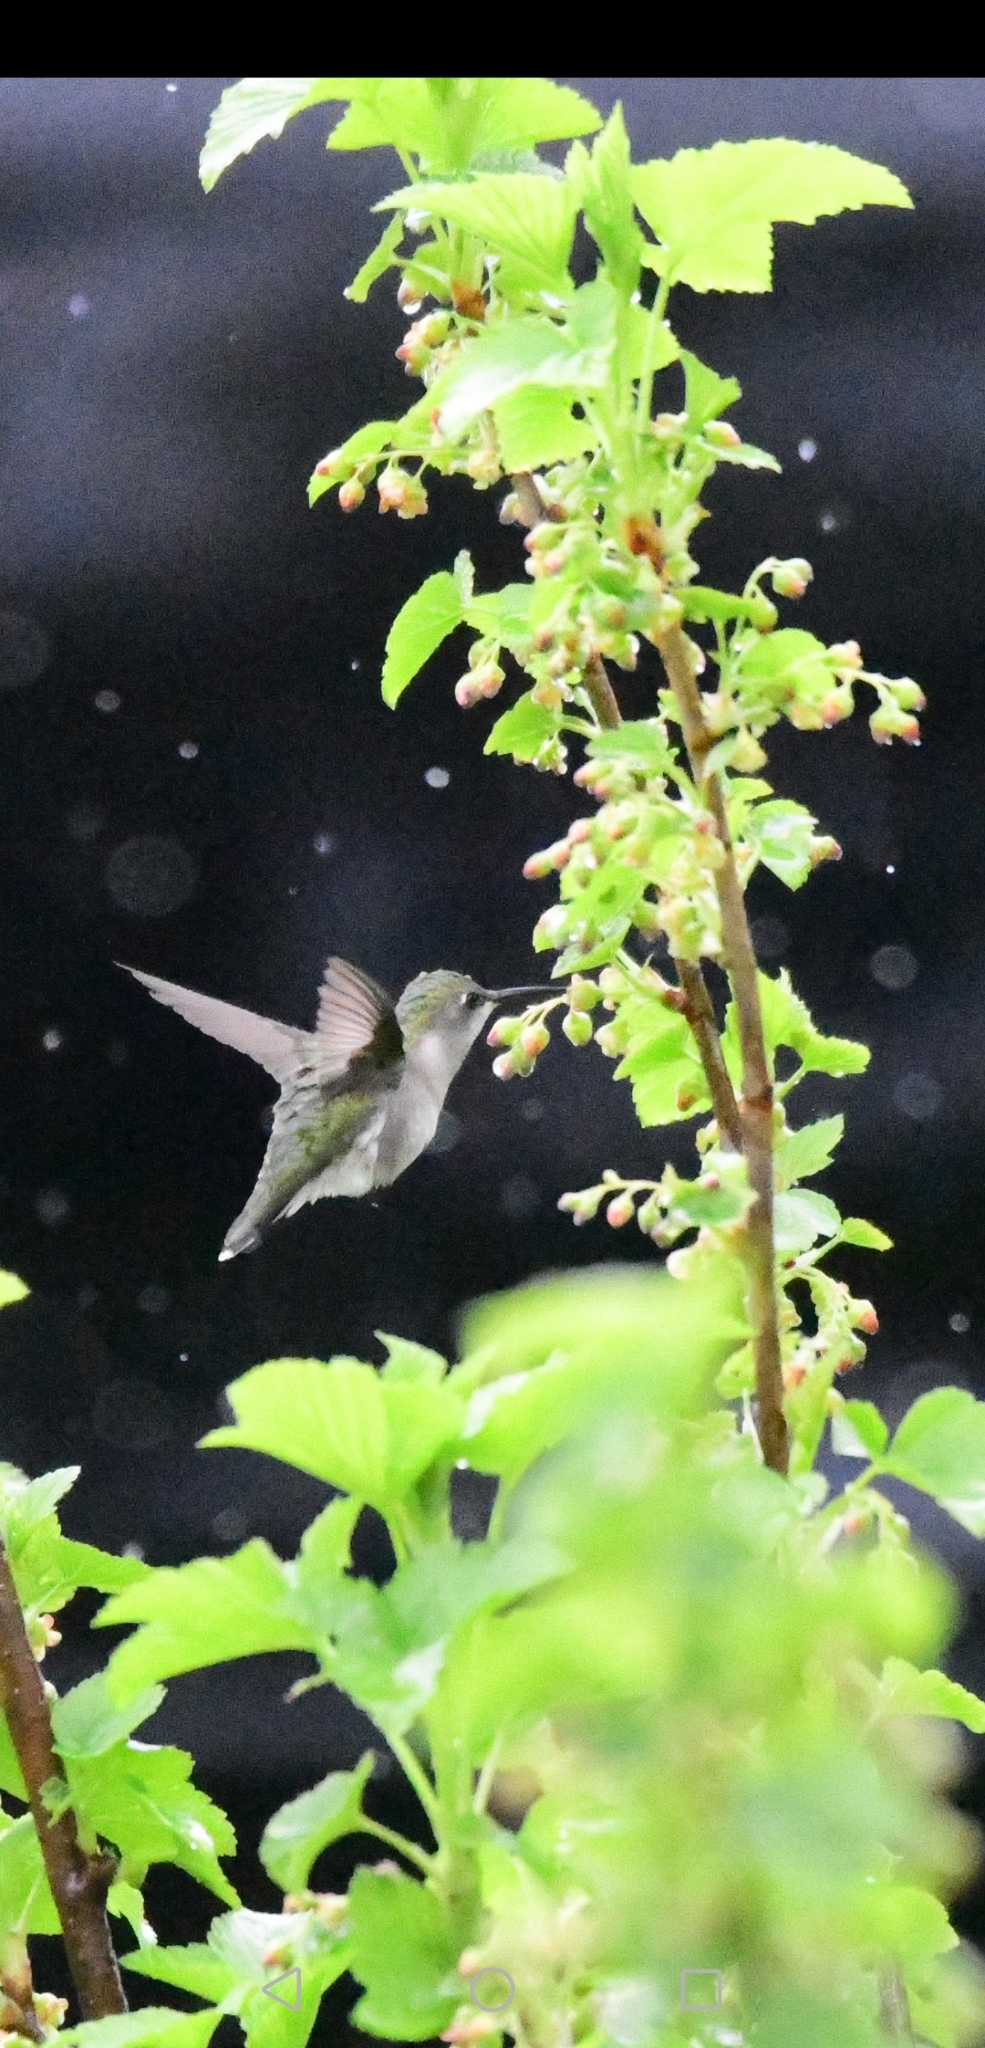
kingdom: Animalia
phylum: Chordata
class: Aves
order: Apodiformes
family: Trochilidae
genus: Archilochus
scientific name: Archilochus colubris
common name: Ruby-throated hummingbird
